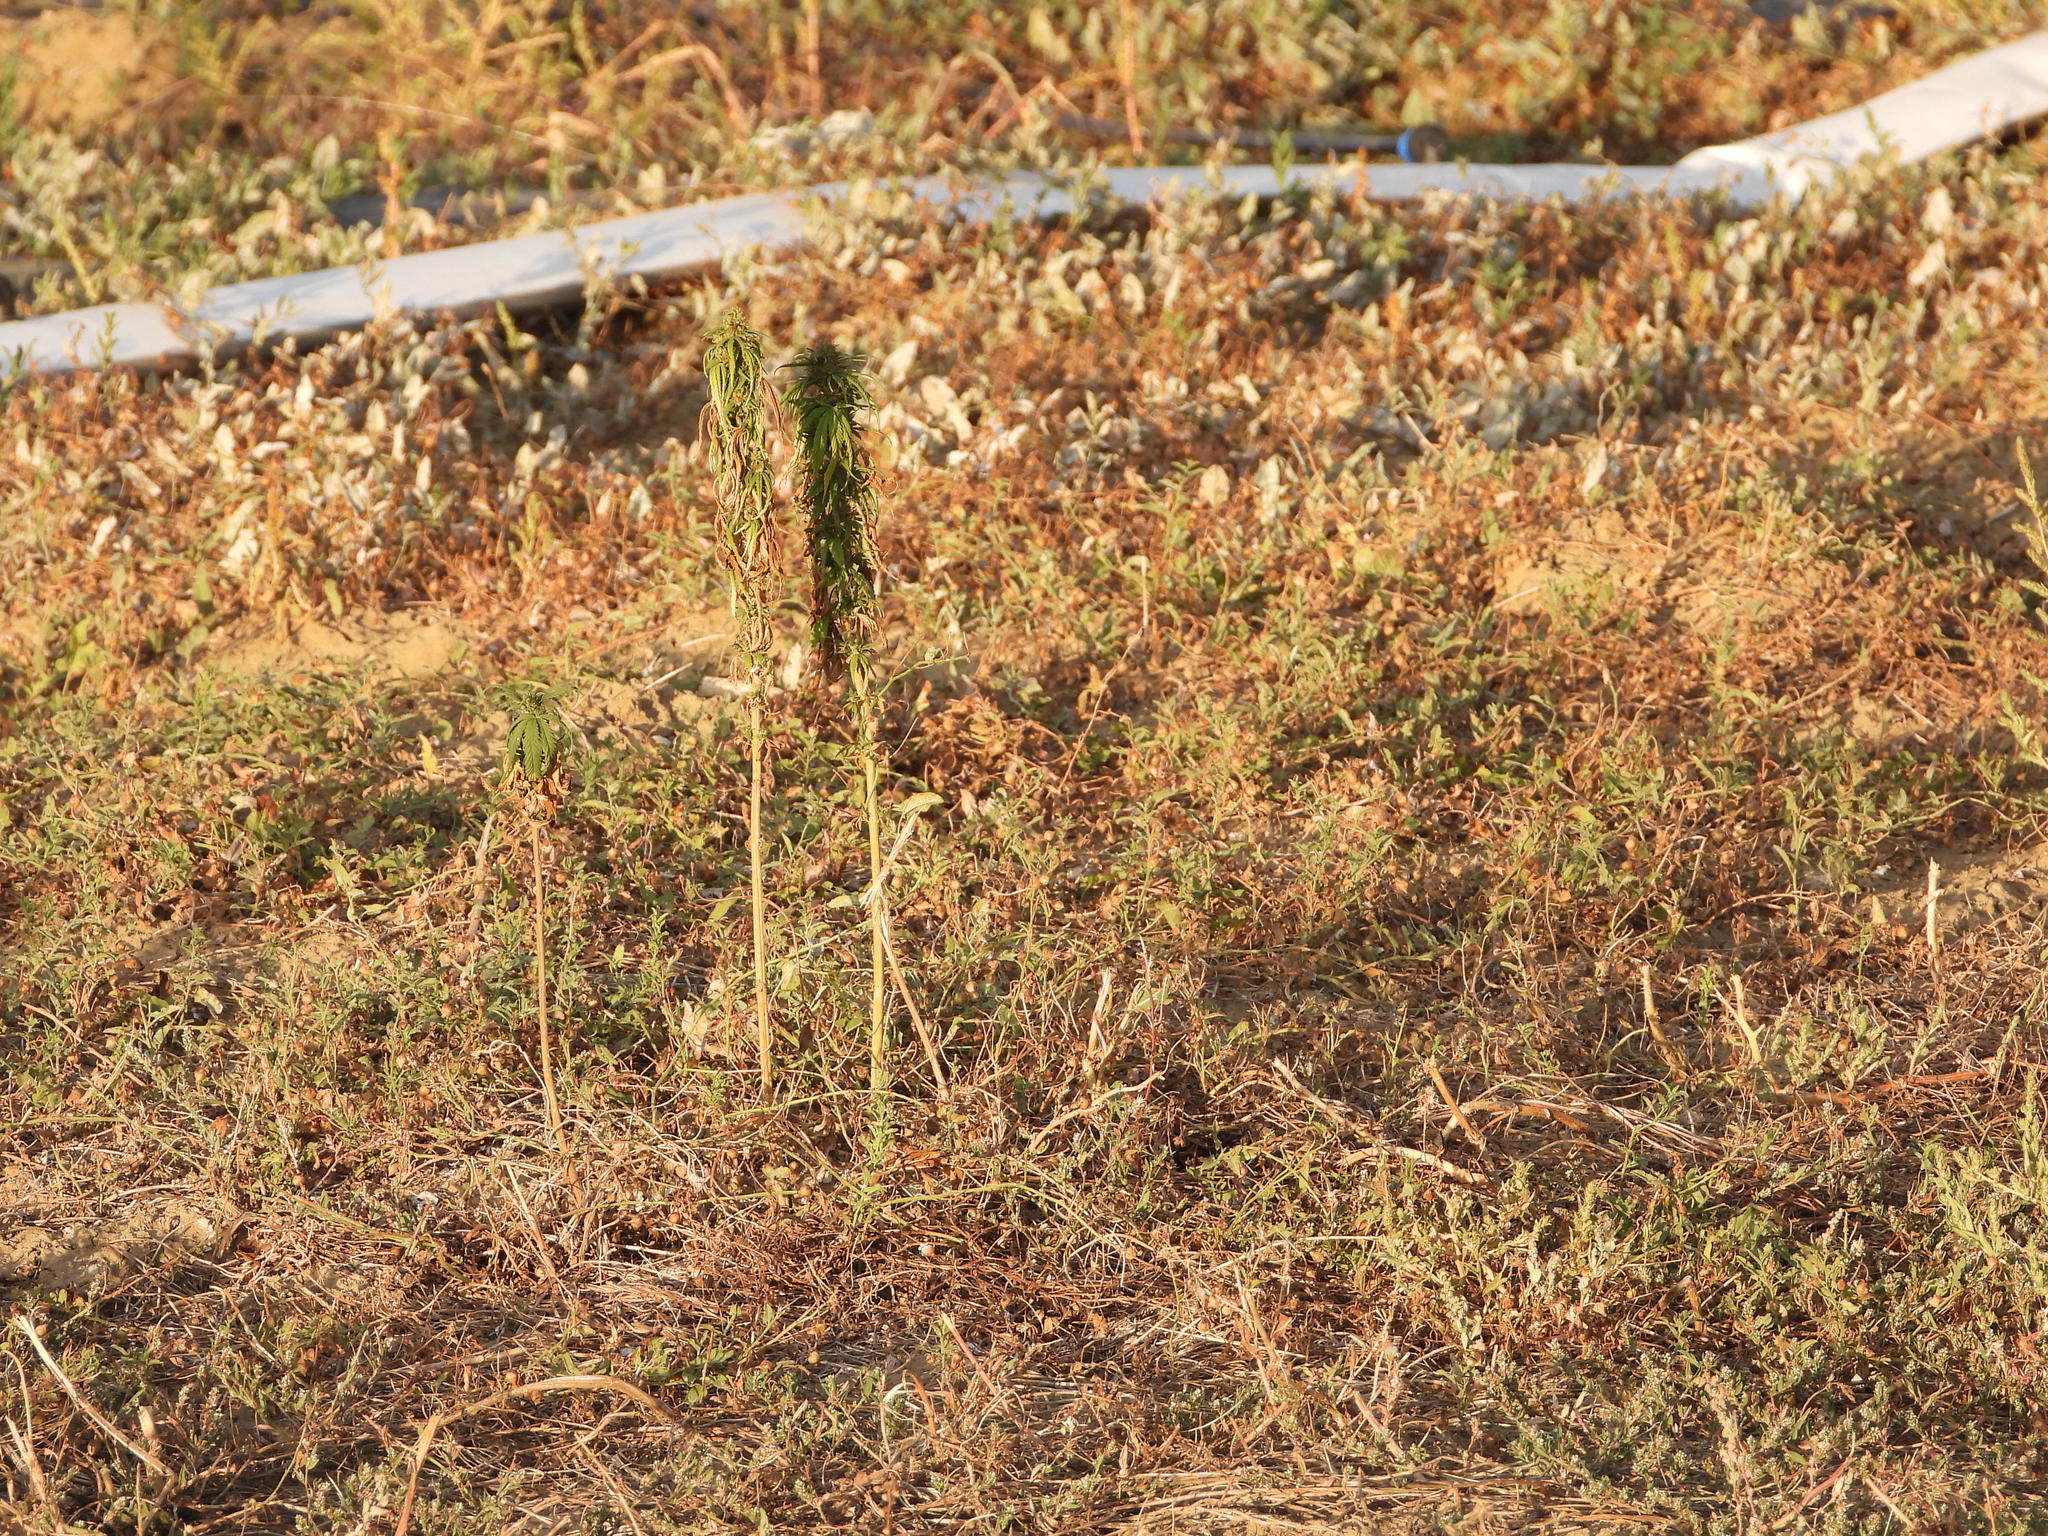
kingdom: Plantae
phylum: Tracheophyta
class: Magnoliopsida
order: Rosales
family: Cannabaceae
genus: Cannabis
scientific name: Cannabis sativa
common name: Hemp
